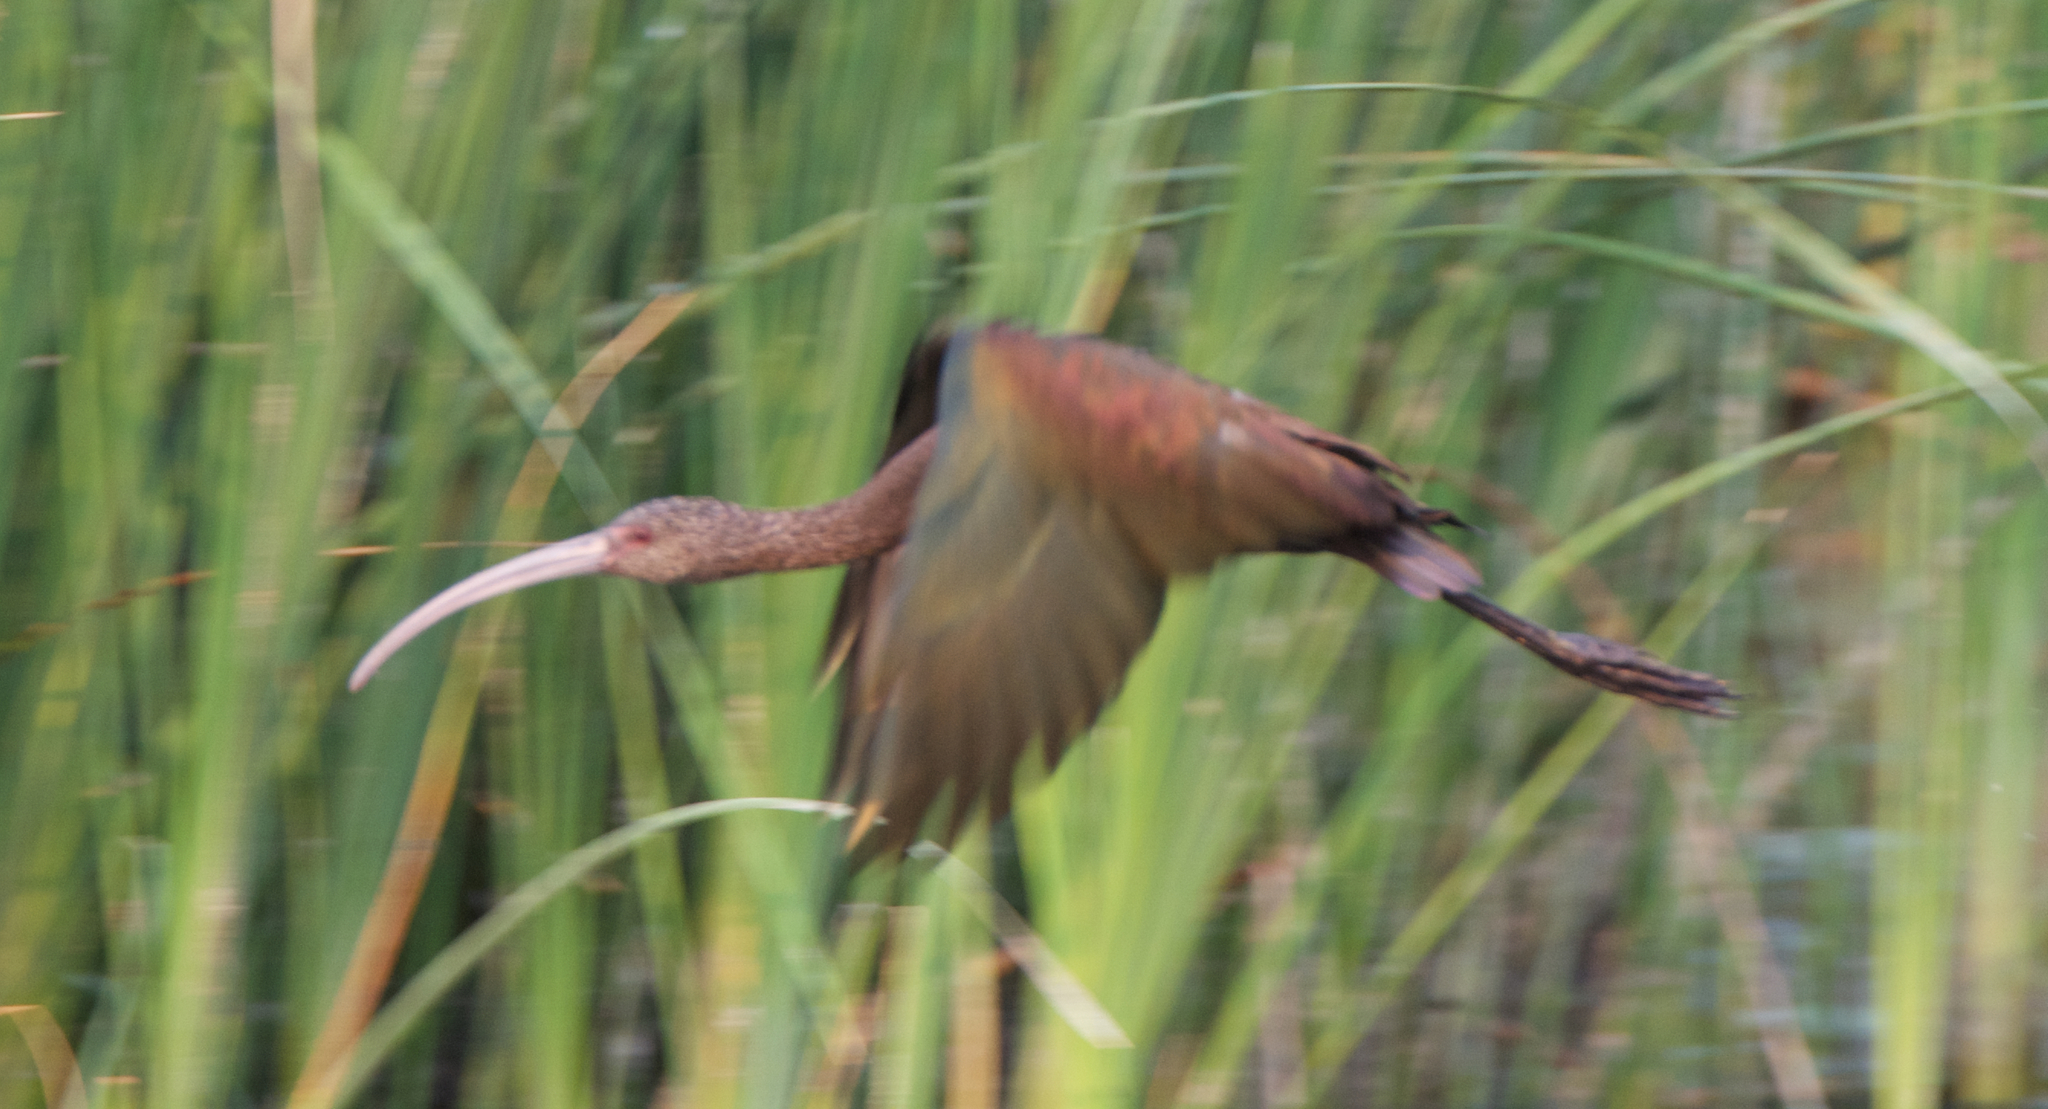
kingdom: Animalia
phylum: Chordata
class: Aves
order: Pelecaniformes
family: Threskiornithidae
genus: Plegadis
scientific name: Plegadis chihi
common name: White-faced ibis
